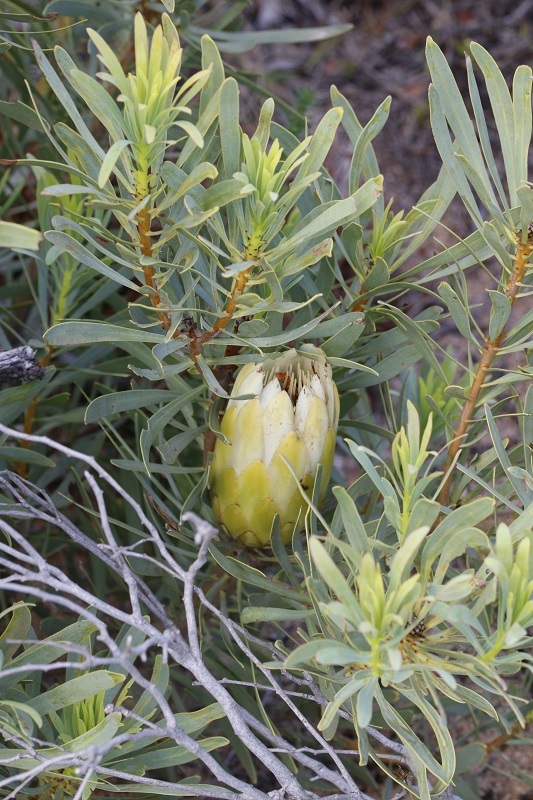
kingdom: Plantae
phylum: Tracheophyta
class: Magnoliopsida
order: Proteales
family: Proteaceae
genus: Protea
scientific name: Protea repens
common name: Sugarbush
